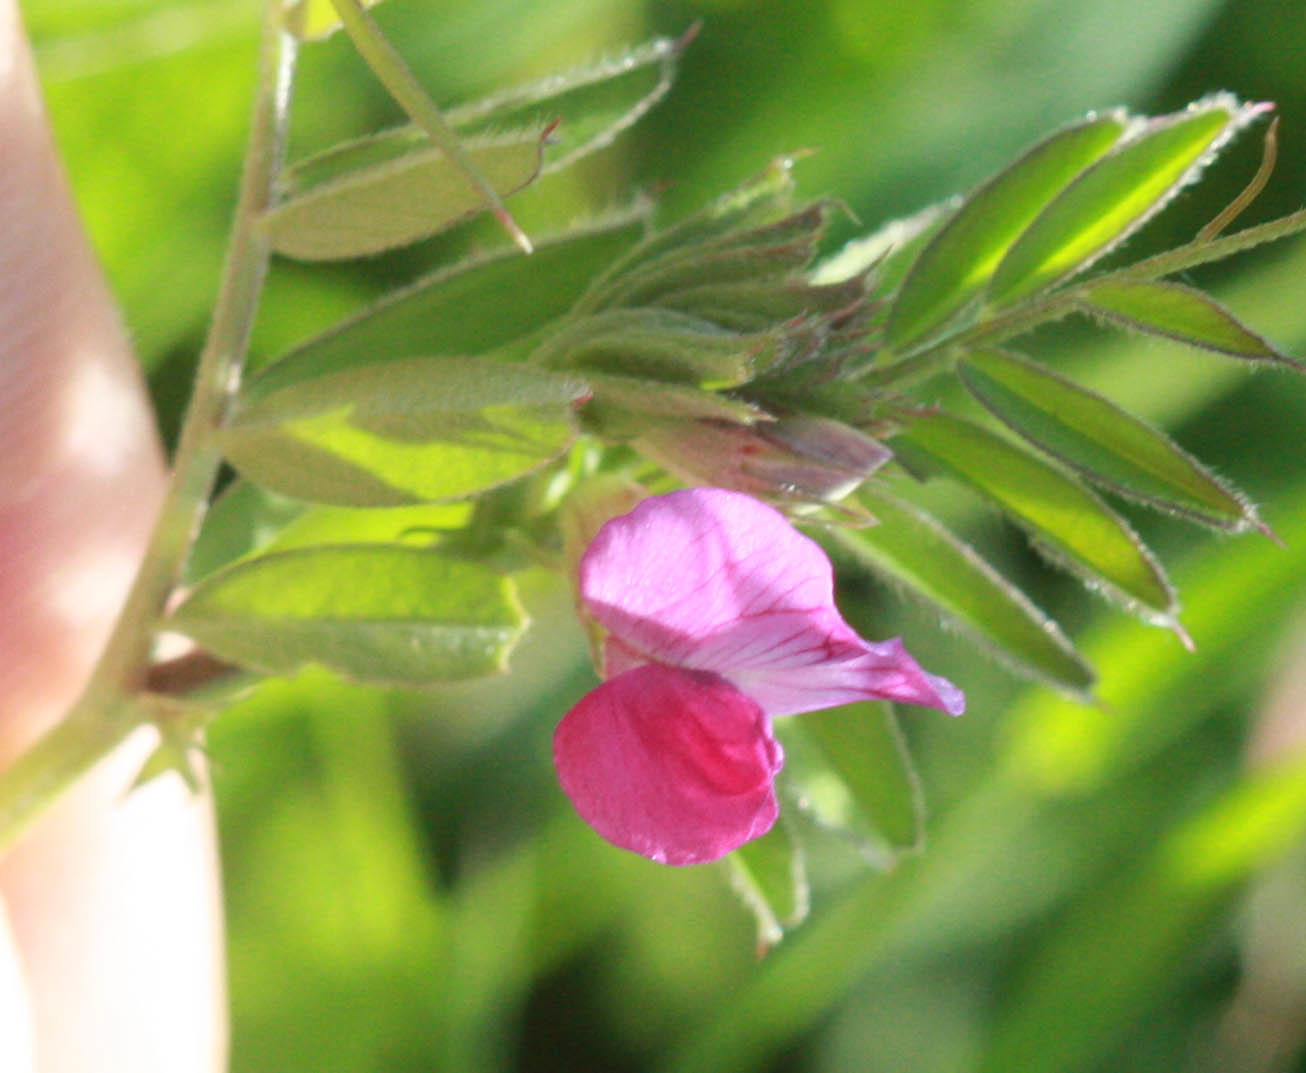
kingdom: Plantae
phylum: Tracheophyta
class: Magnoliopsida
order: Fabales
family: Fabaceae
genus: Vicia
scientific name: Vicia sativa
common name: Garden vetch
